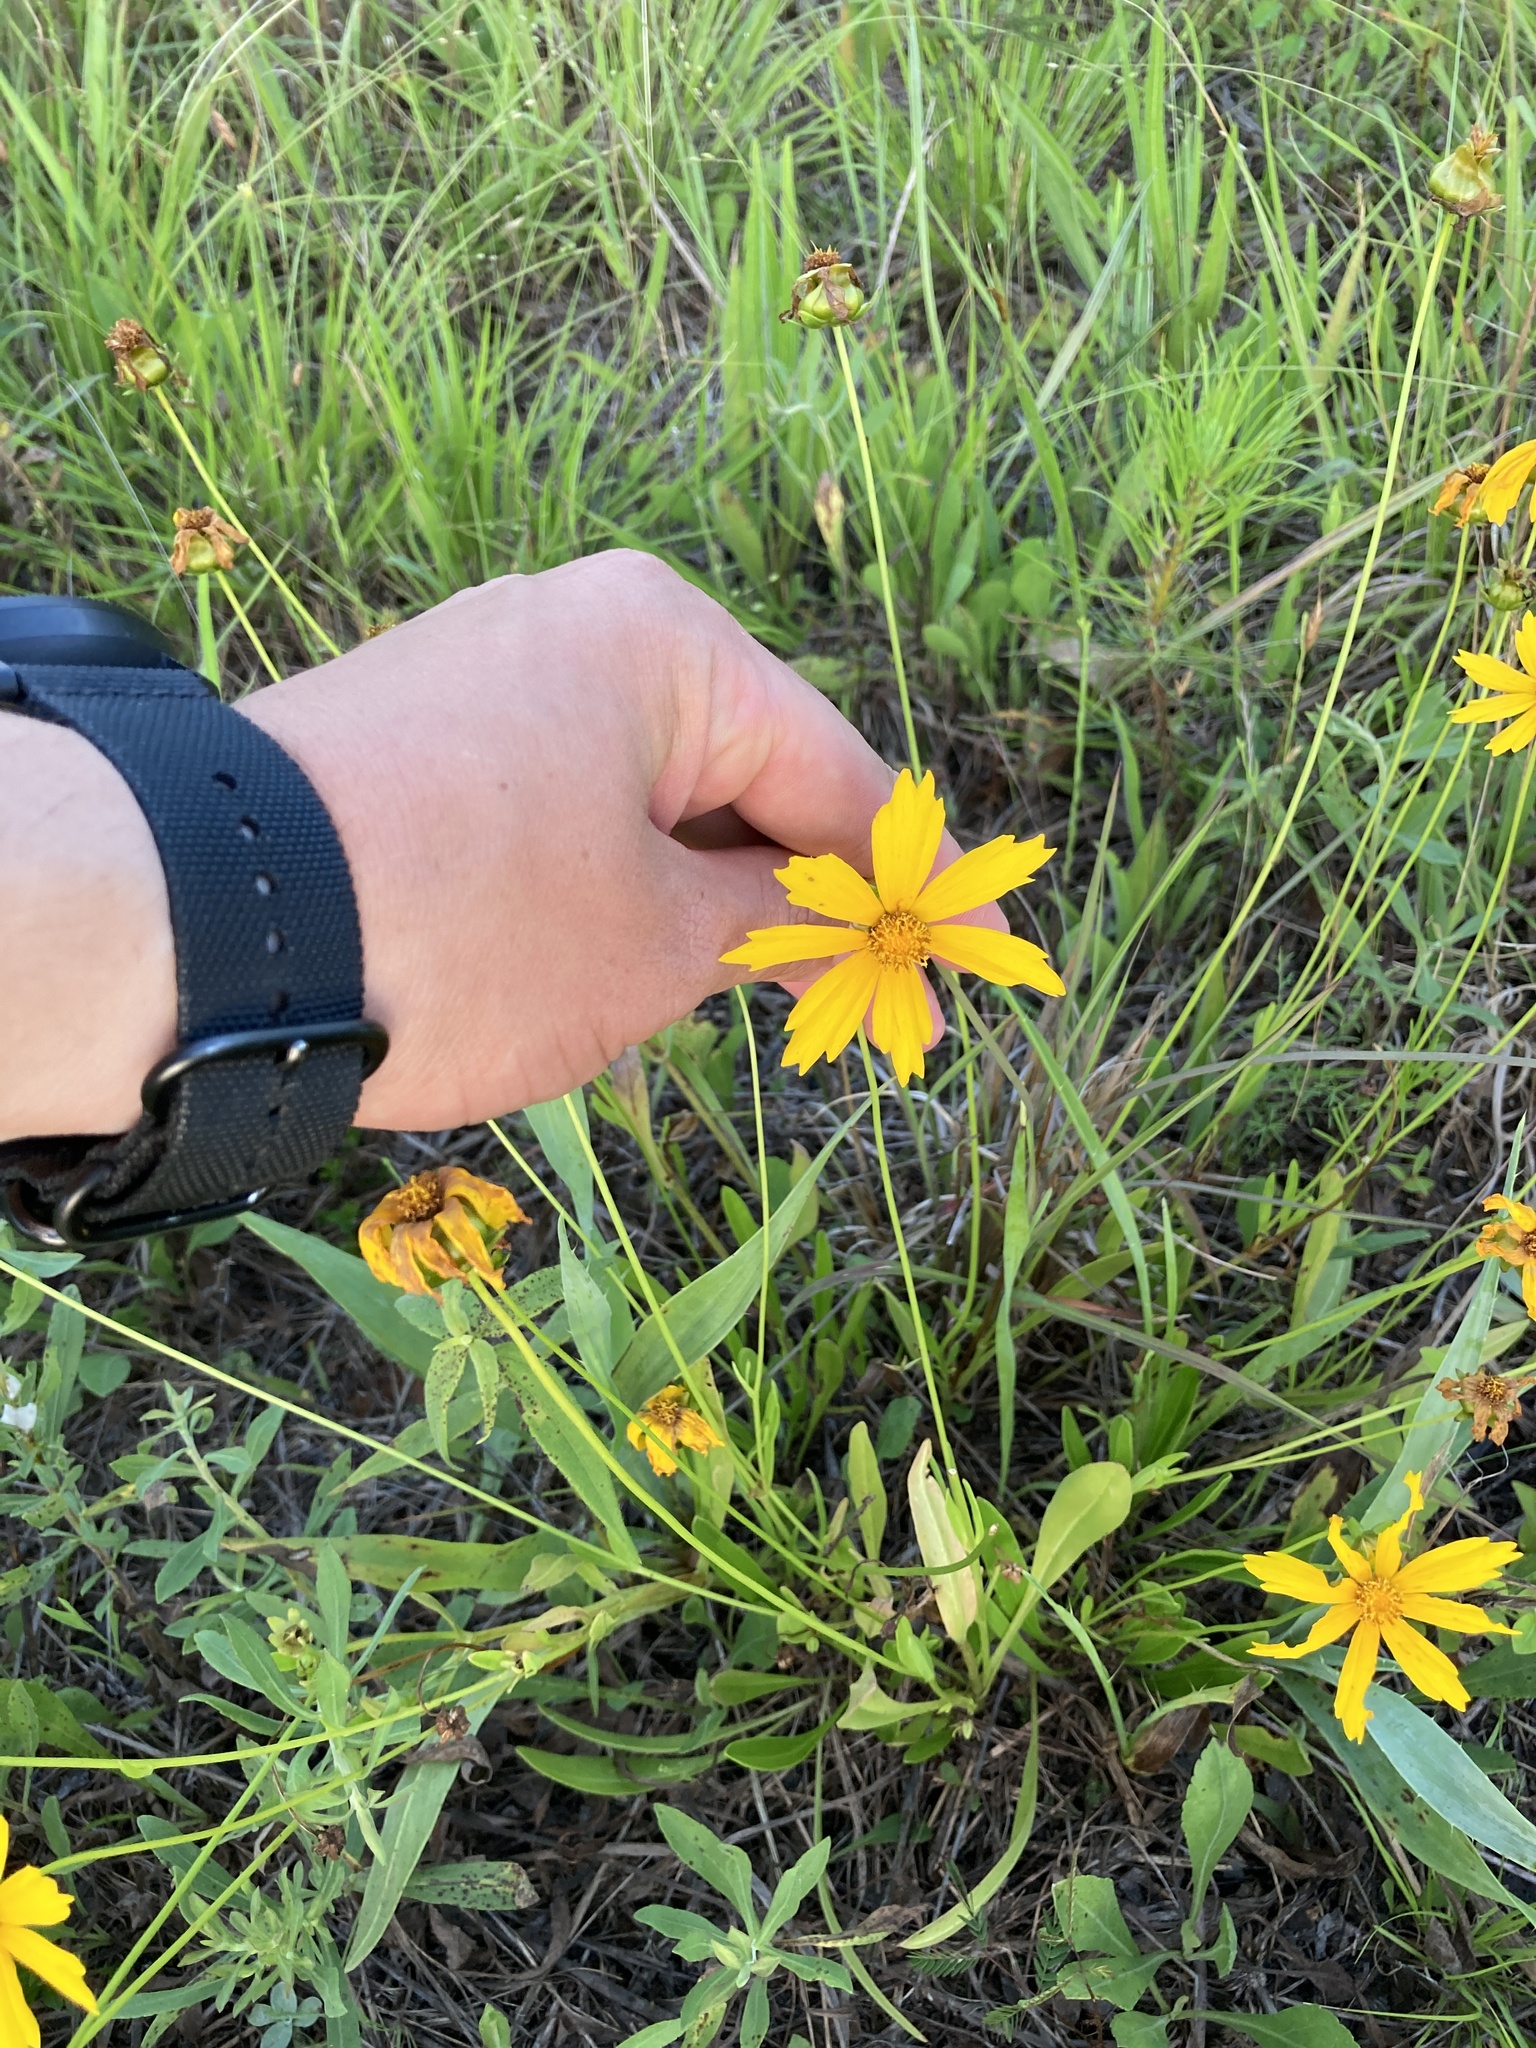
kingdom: Plantae
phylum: Tracheophyta
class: Magnoliopsida
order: Asterales
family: Asteraceae
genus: Coreopsis
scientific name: Coreopsis lanceolata
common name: Garden coreopsis
